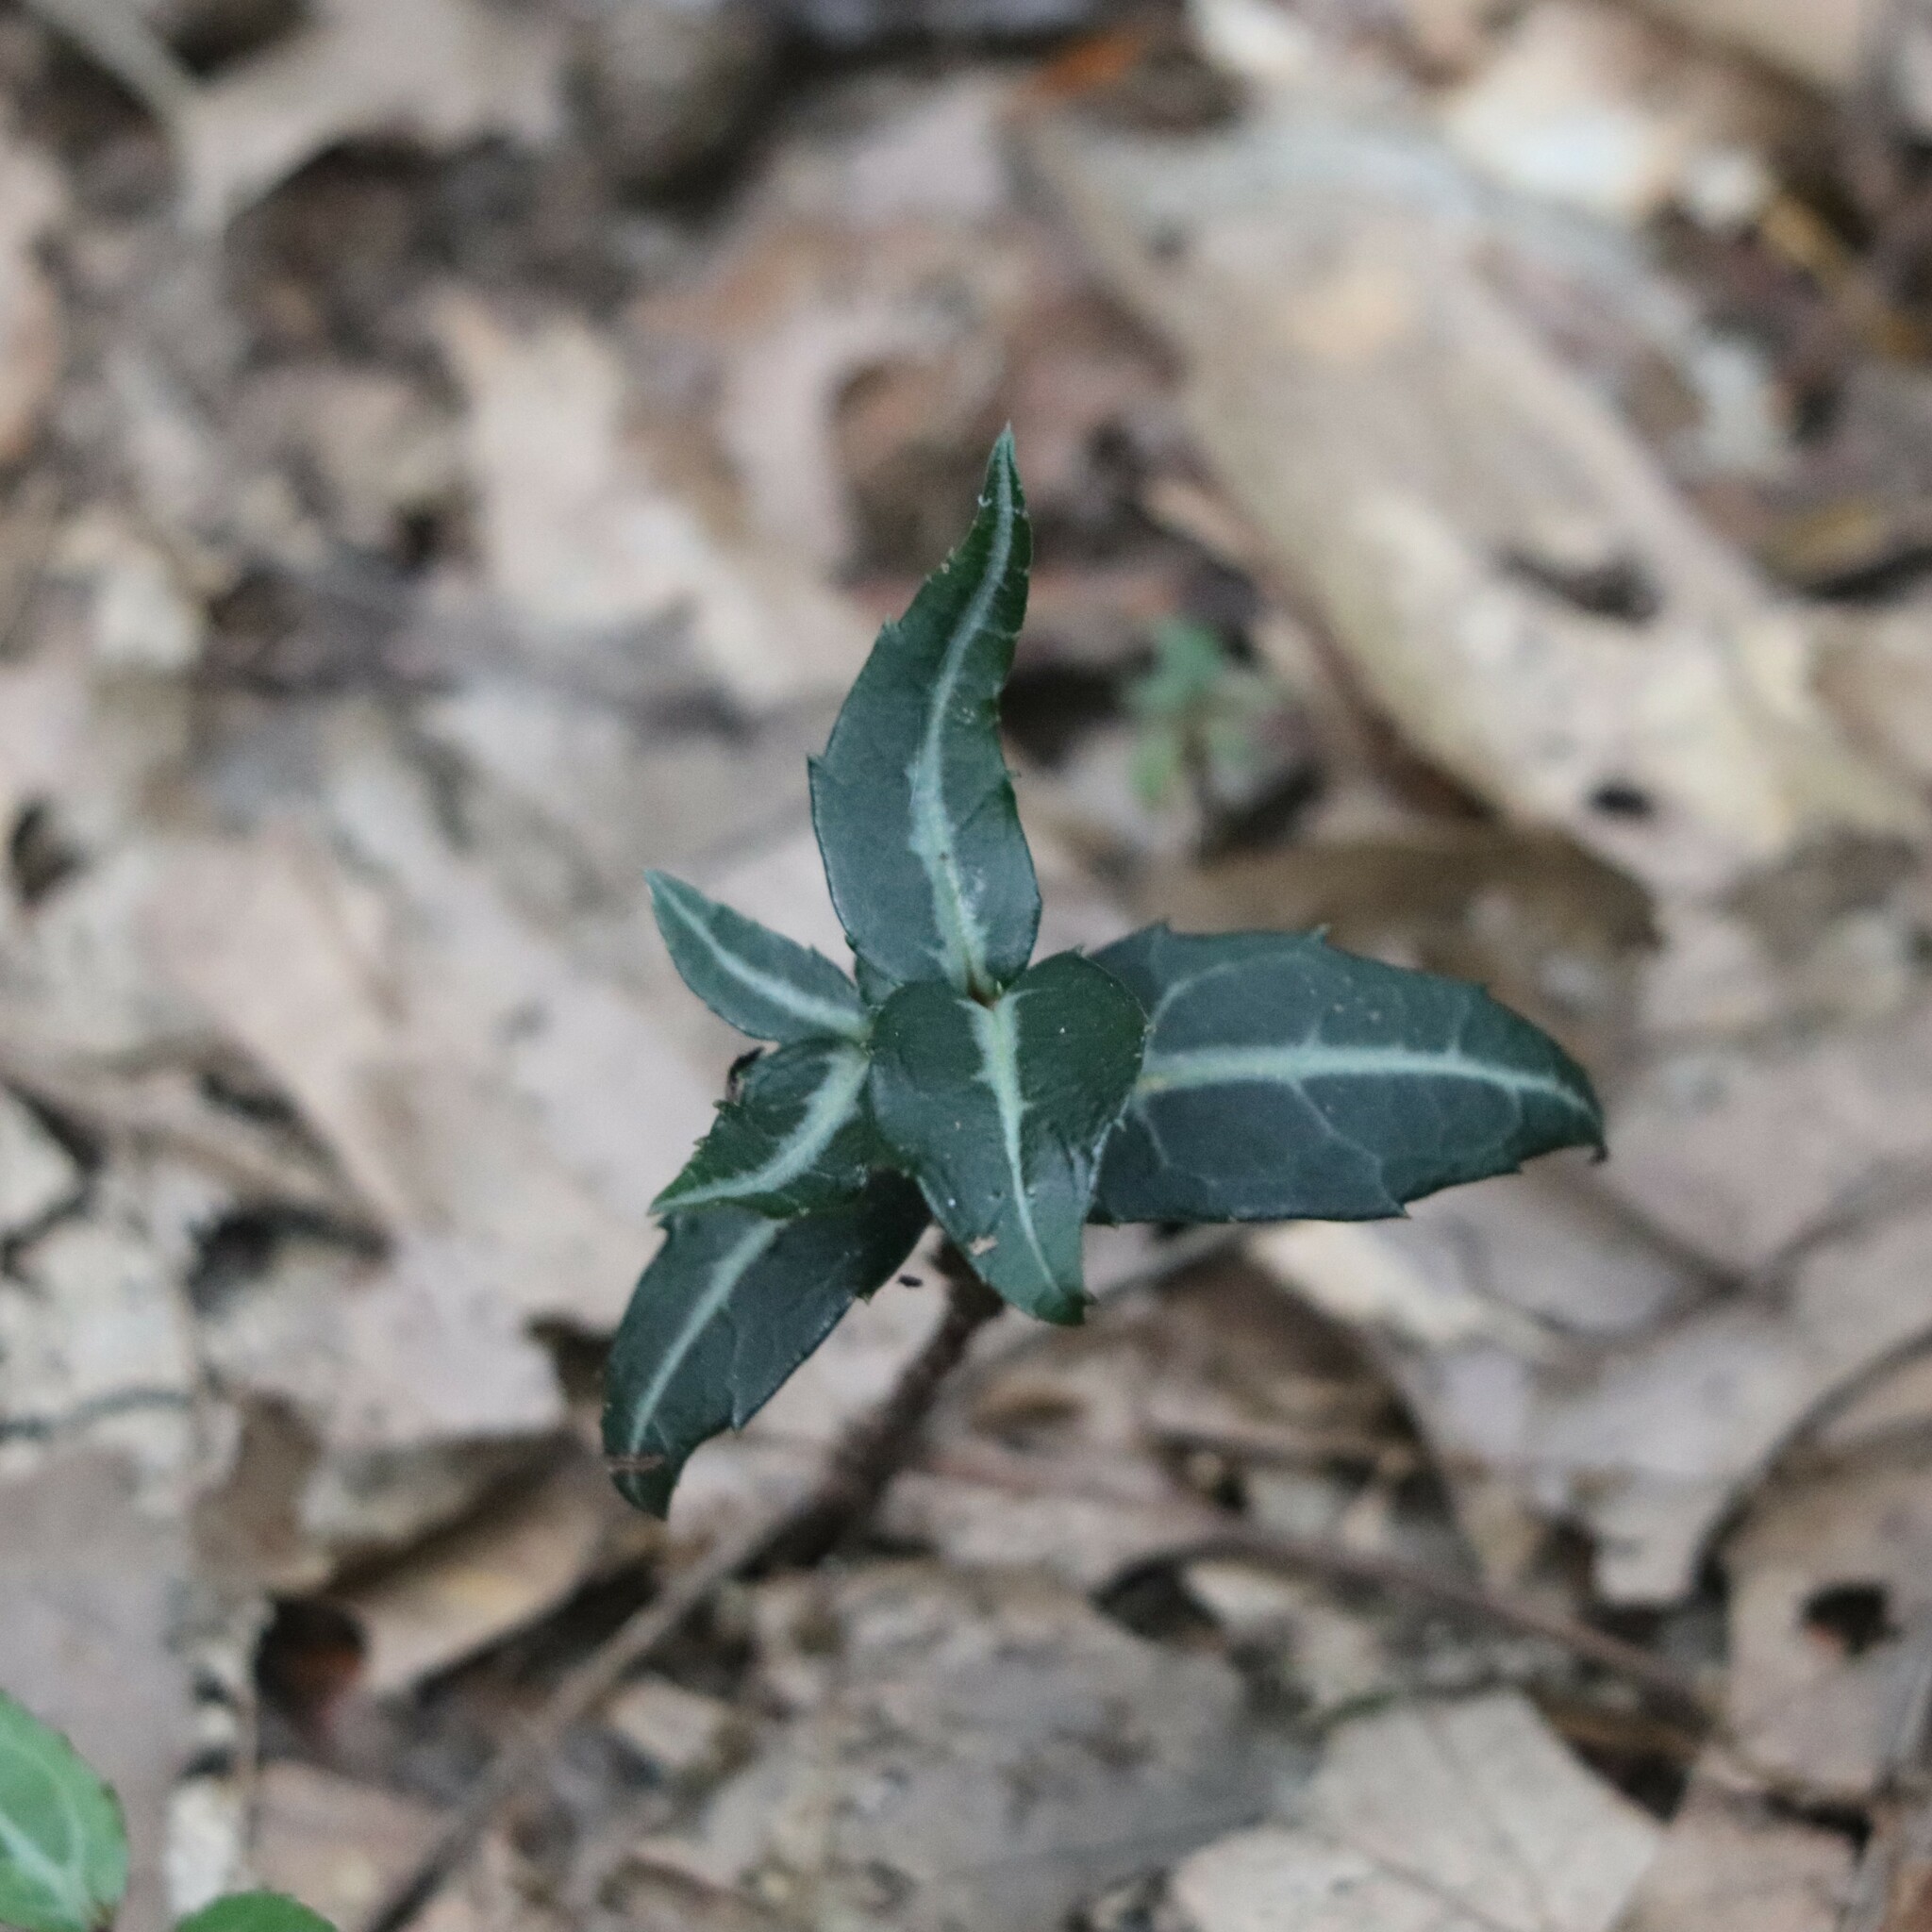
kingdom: Plantae
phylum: Tracheophyta
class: Magnoliopsida
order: Ericales
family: Ericaceae
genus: Chimaphila
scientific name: Chimaphila maculata
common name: Spotted pipsissewa
